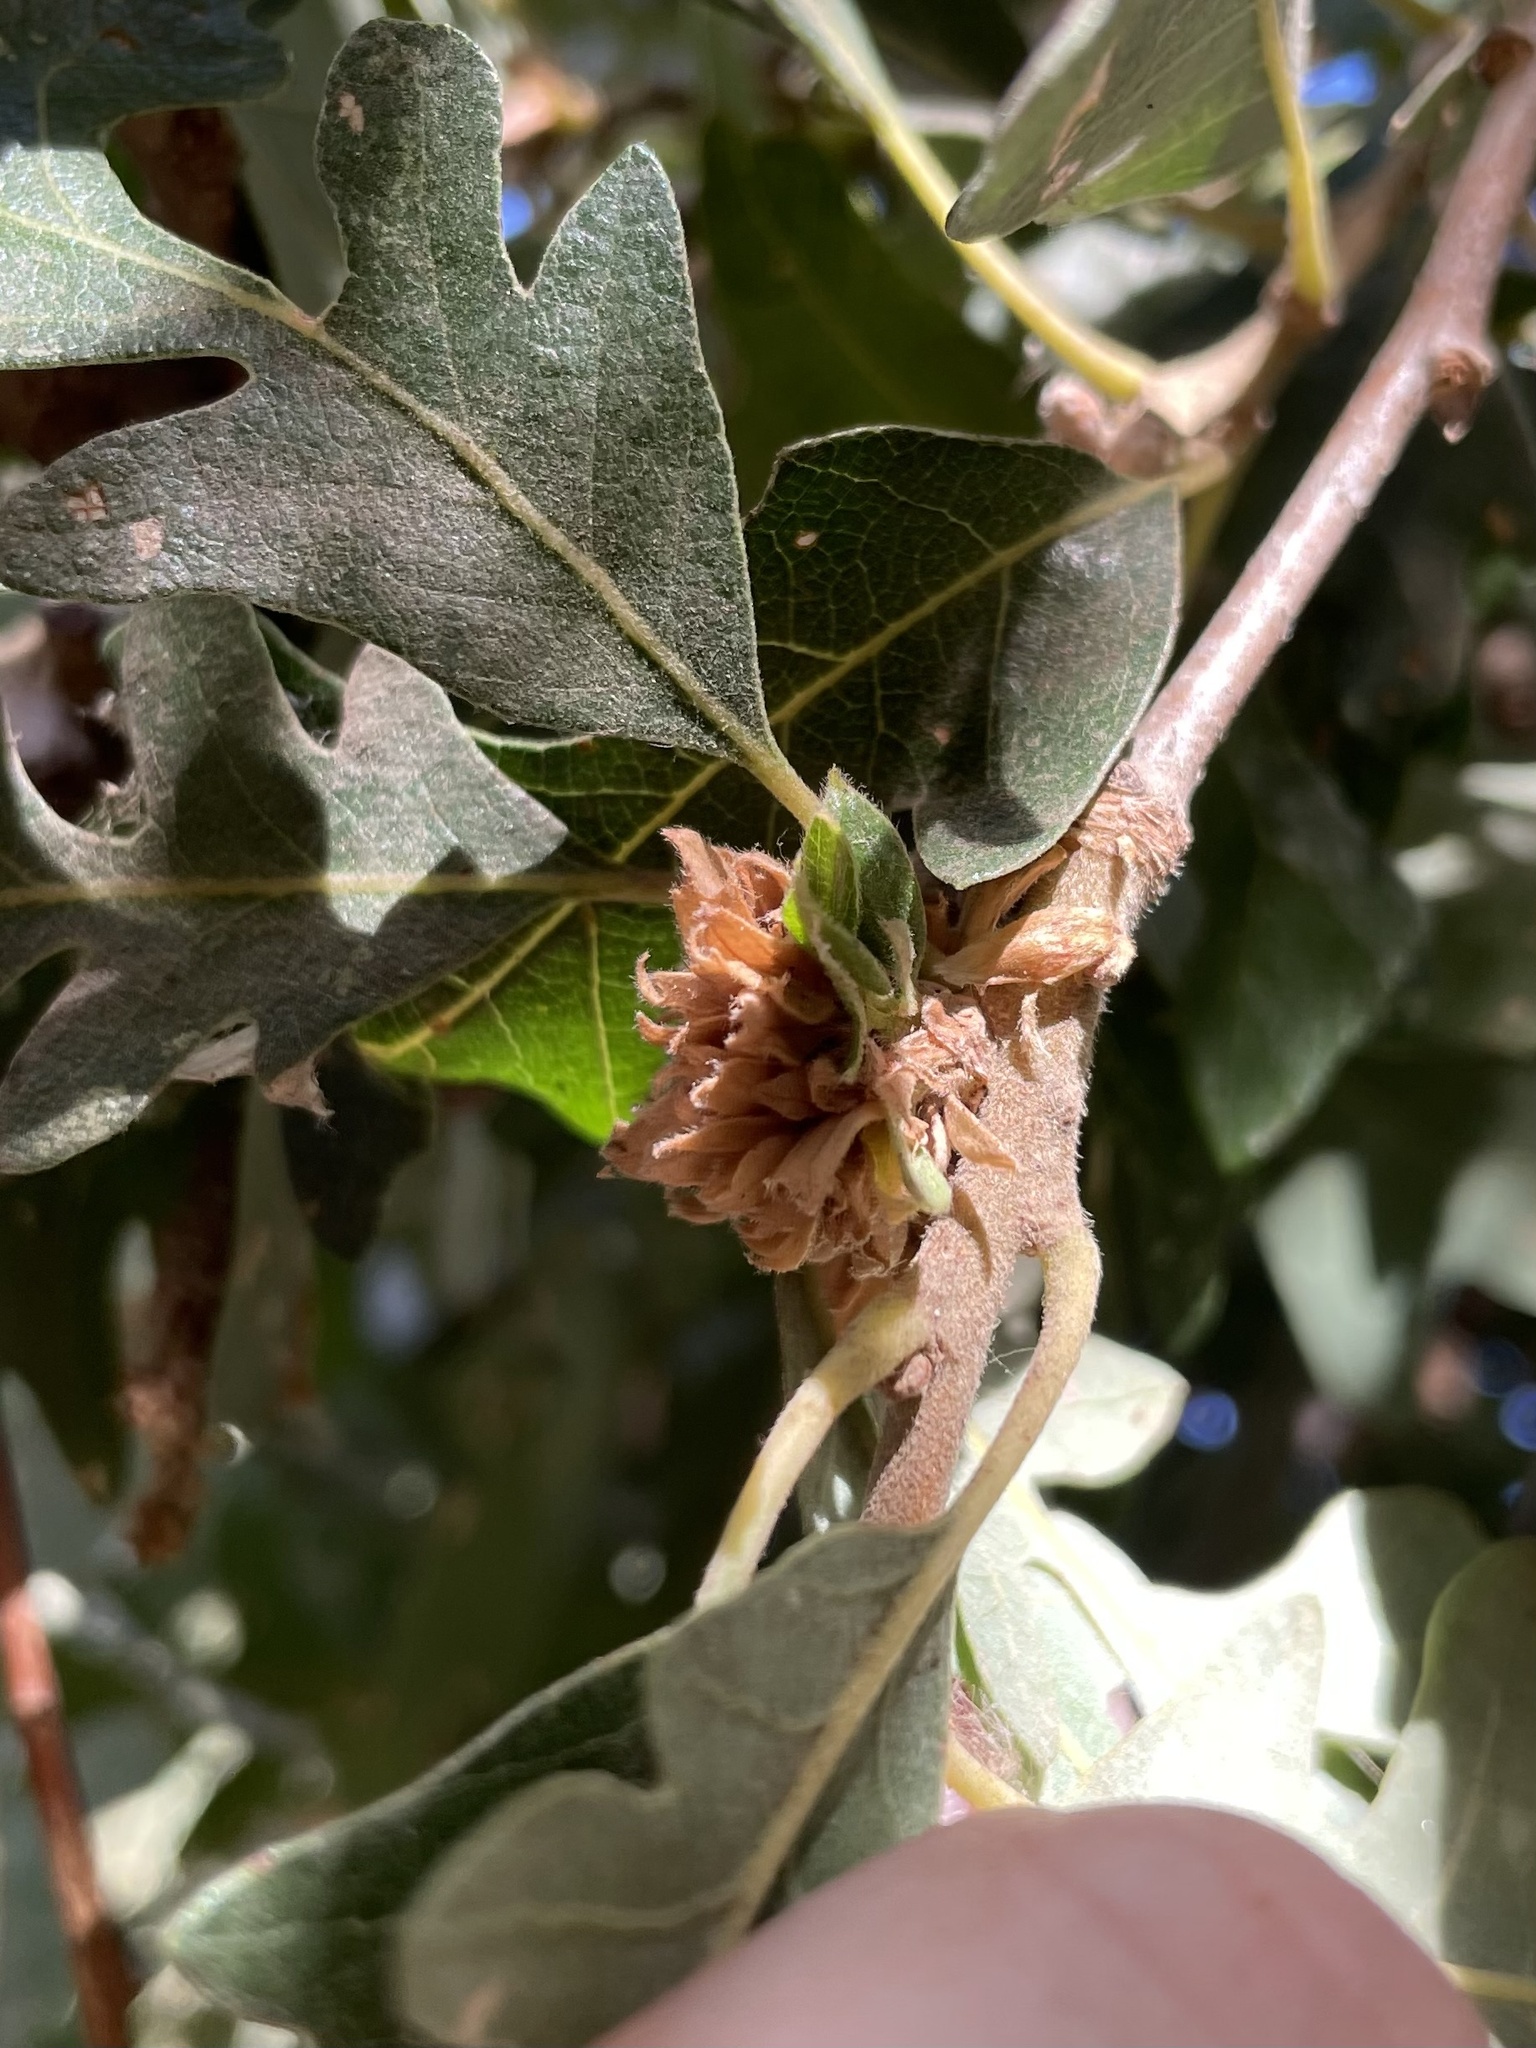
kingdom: Animalia
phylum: Arthropoda
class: Insecta
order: Hymenoptera
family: Cynipidae
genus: Andricus
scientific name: Andricus
